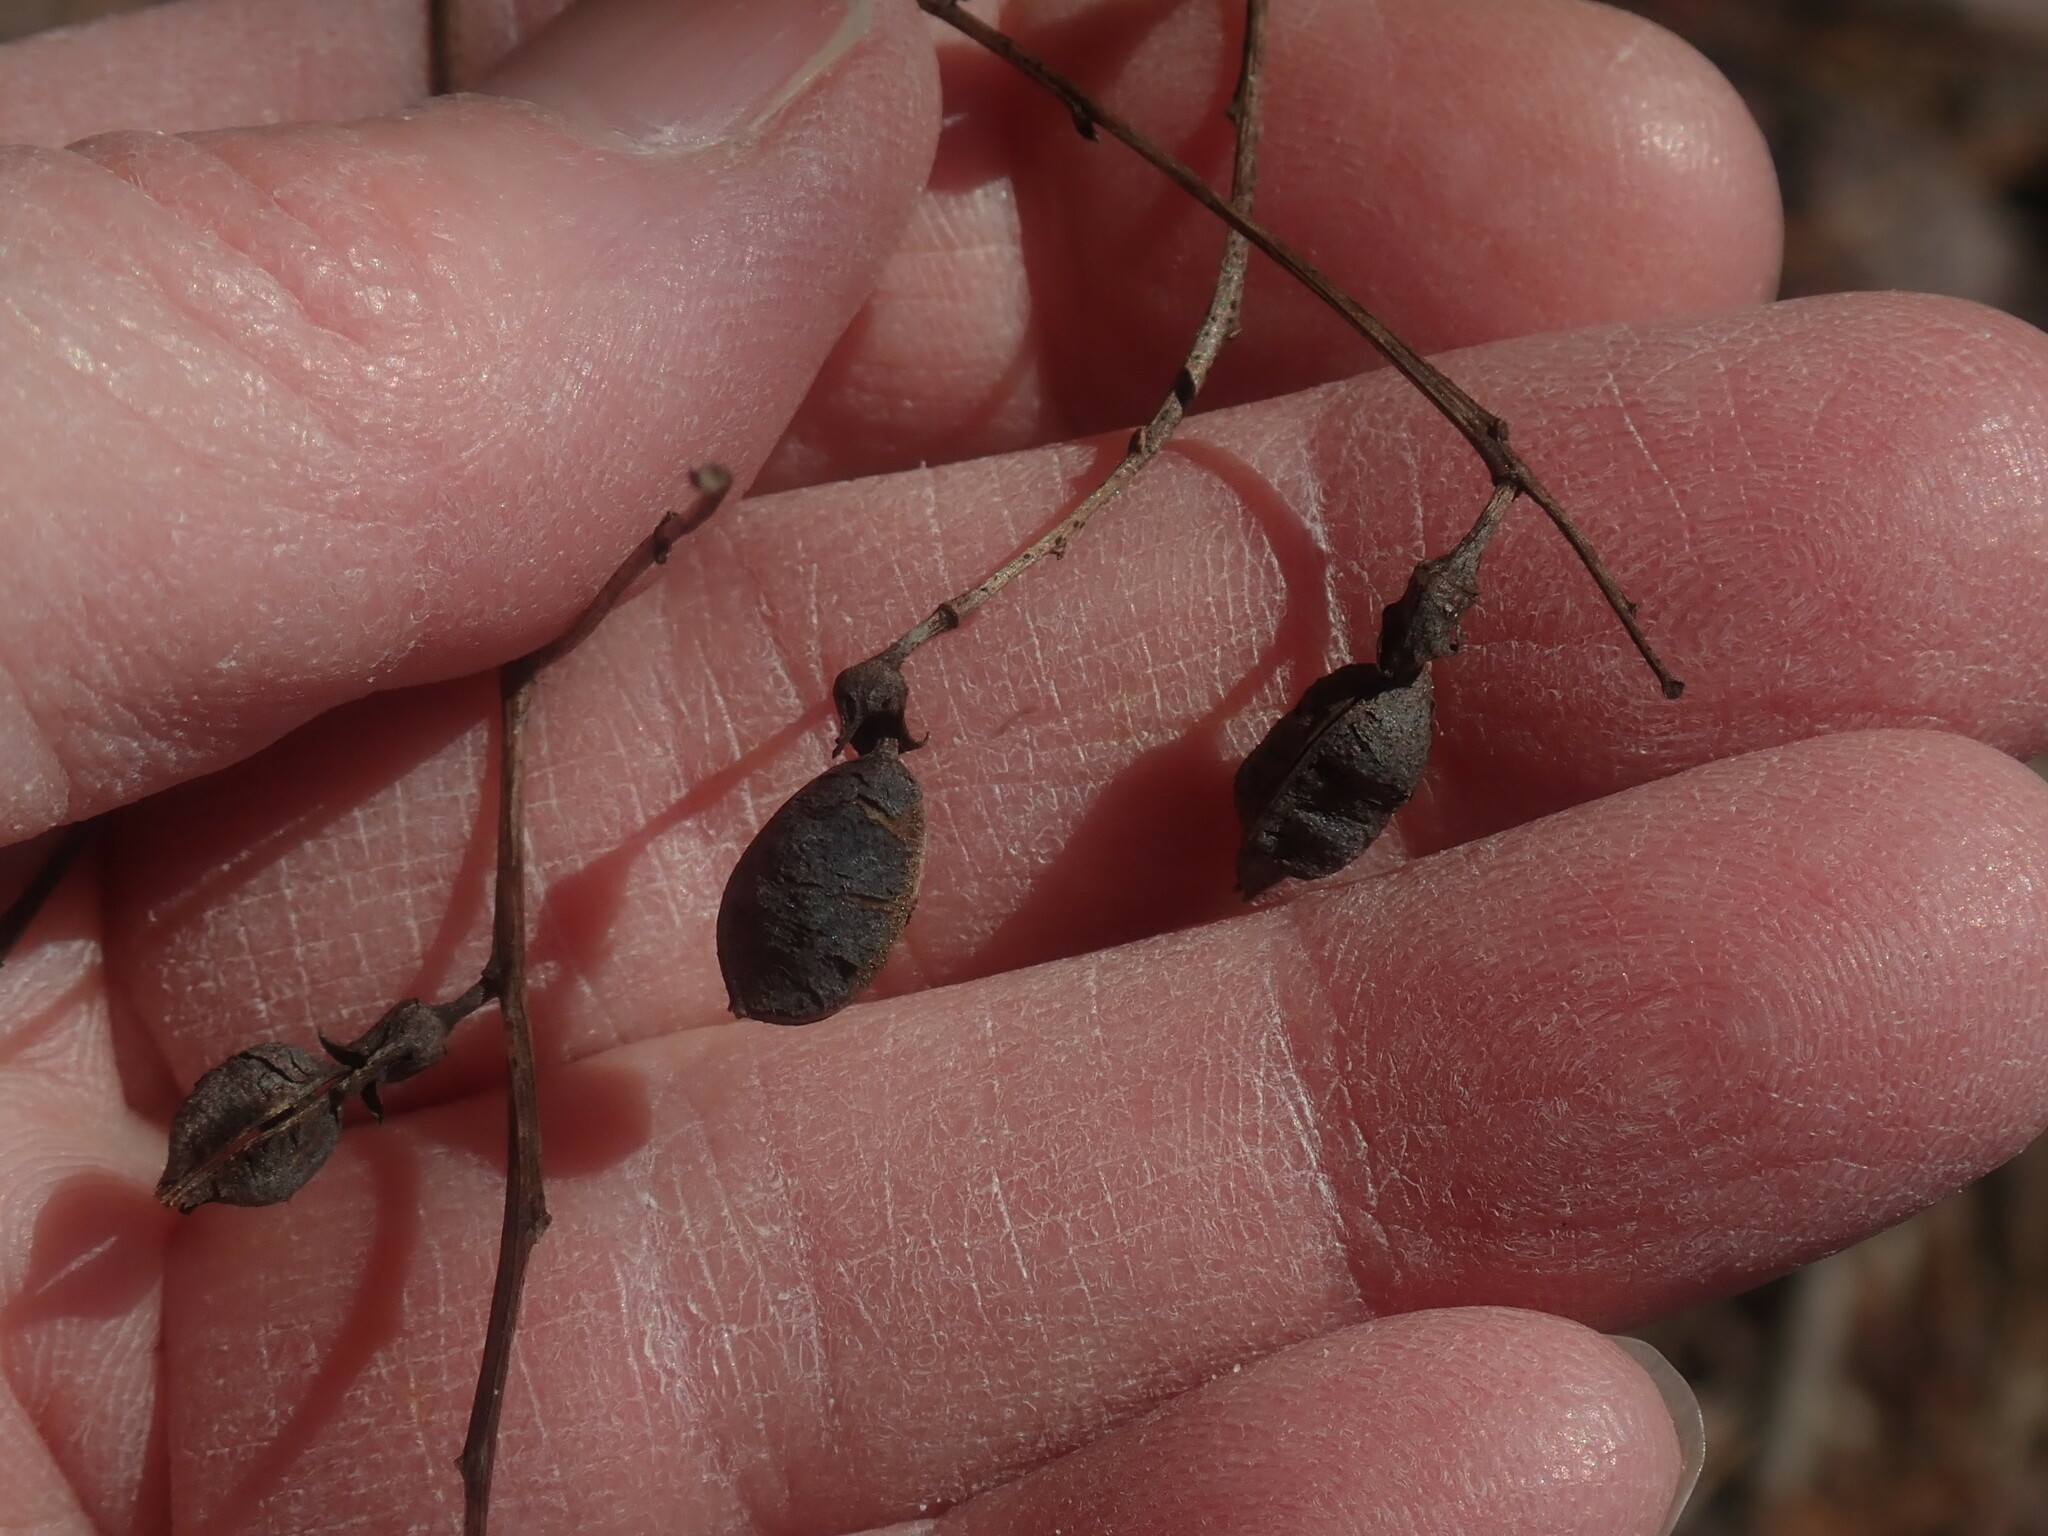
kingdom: Plantae
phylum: Tracheophyta
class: Magnoliopsida
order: Fabales
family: Fabaceae
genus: Baptisia
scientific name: Baptisia tinctoria
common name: Wild indigo
